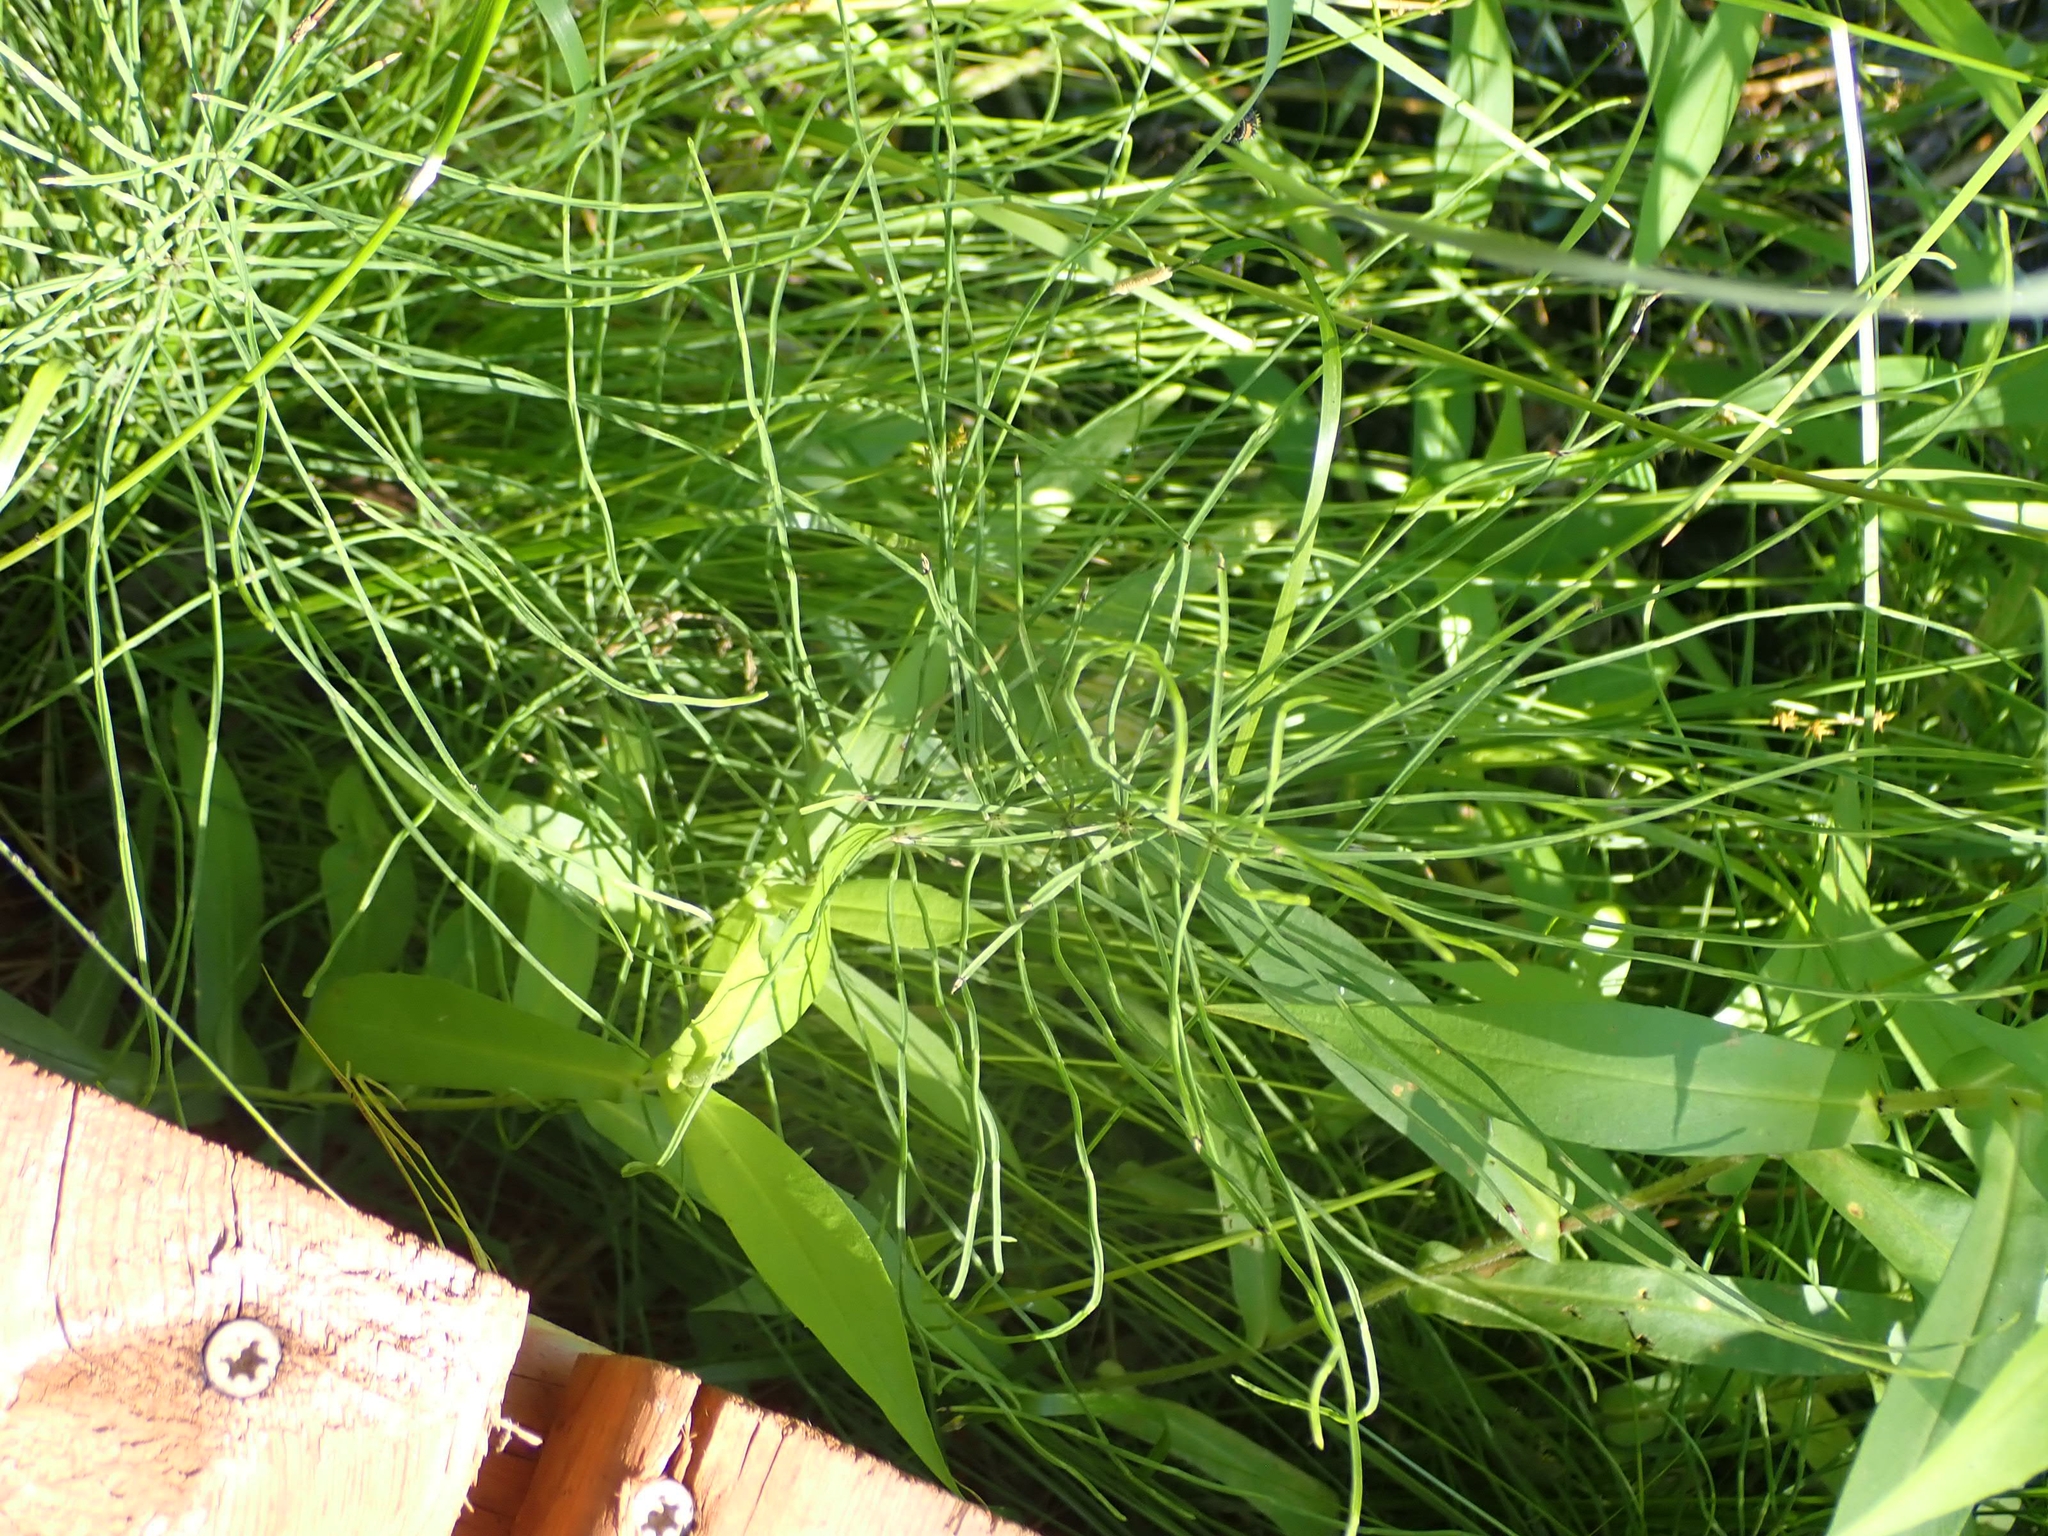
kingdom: Plantae
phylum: Tracheophyta
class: Polypodiopsida
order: Equisetales
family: Equisetaceae
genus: Equisetum
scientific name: Equisetum arvense
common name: Field horsetail
